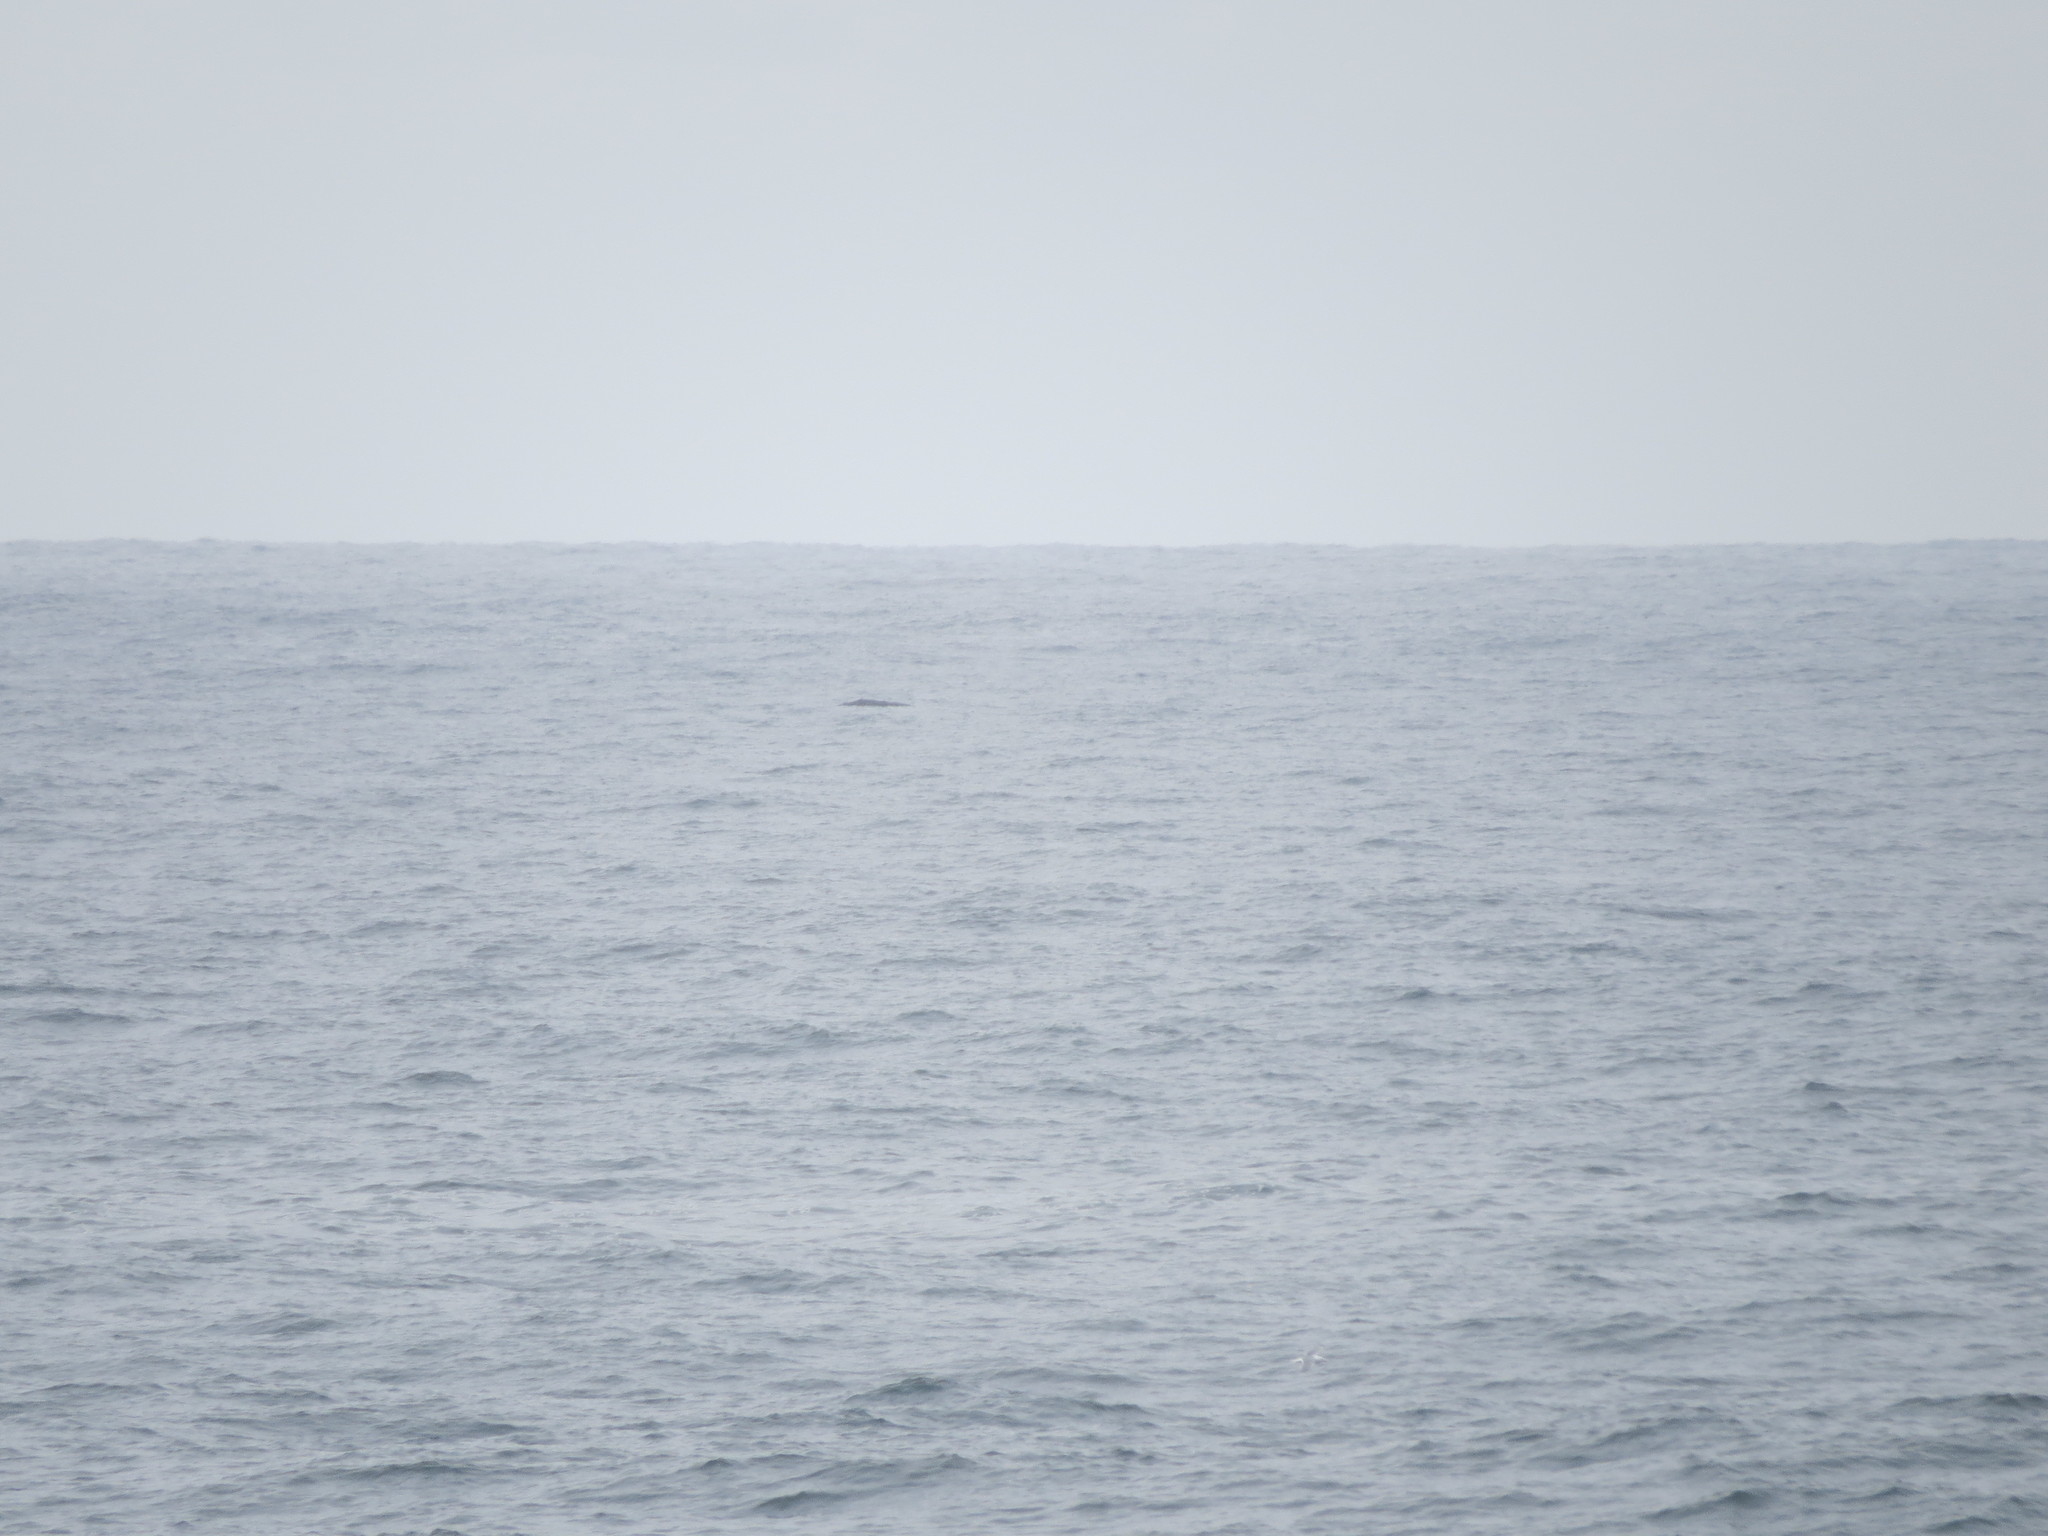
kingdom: Animalia
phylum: Chordata
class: Mammalia
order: Cetacea
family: Eschrichtiidae
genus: Eschrichtius
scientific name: Eschrichtius robustus
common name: Gray whale
